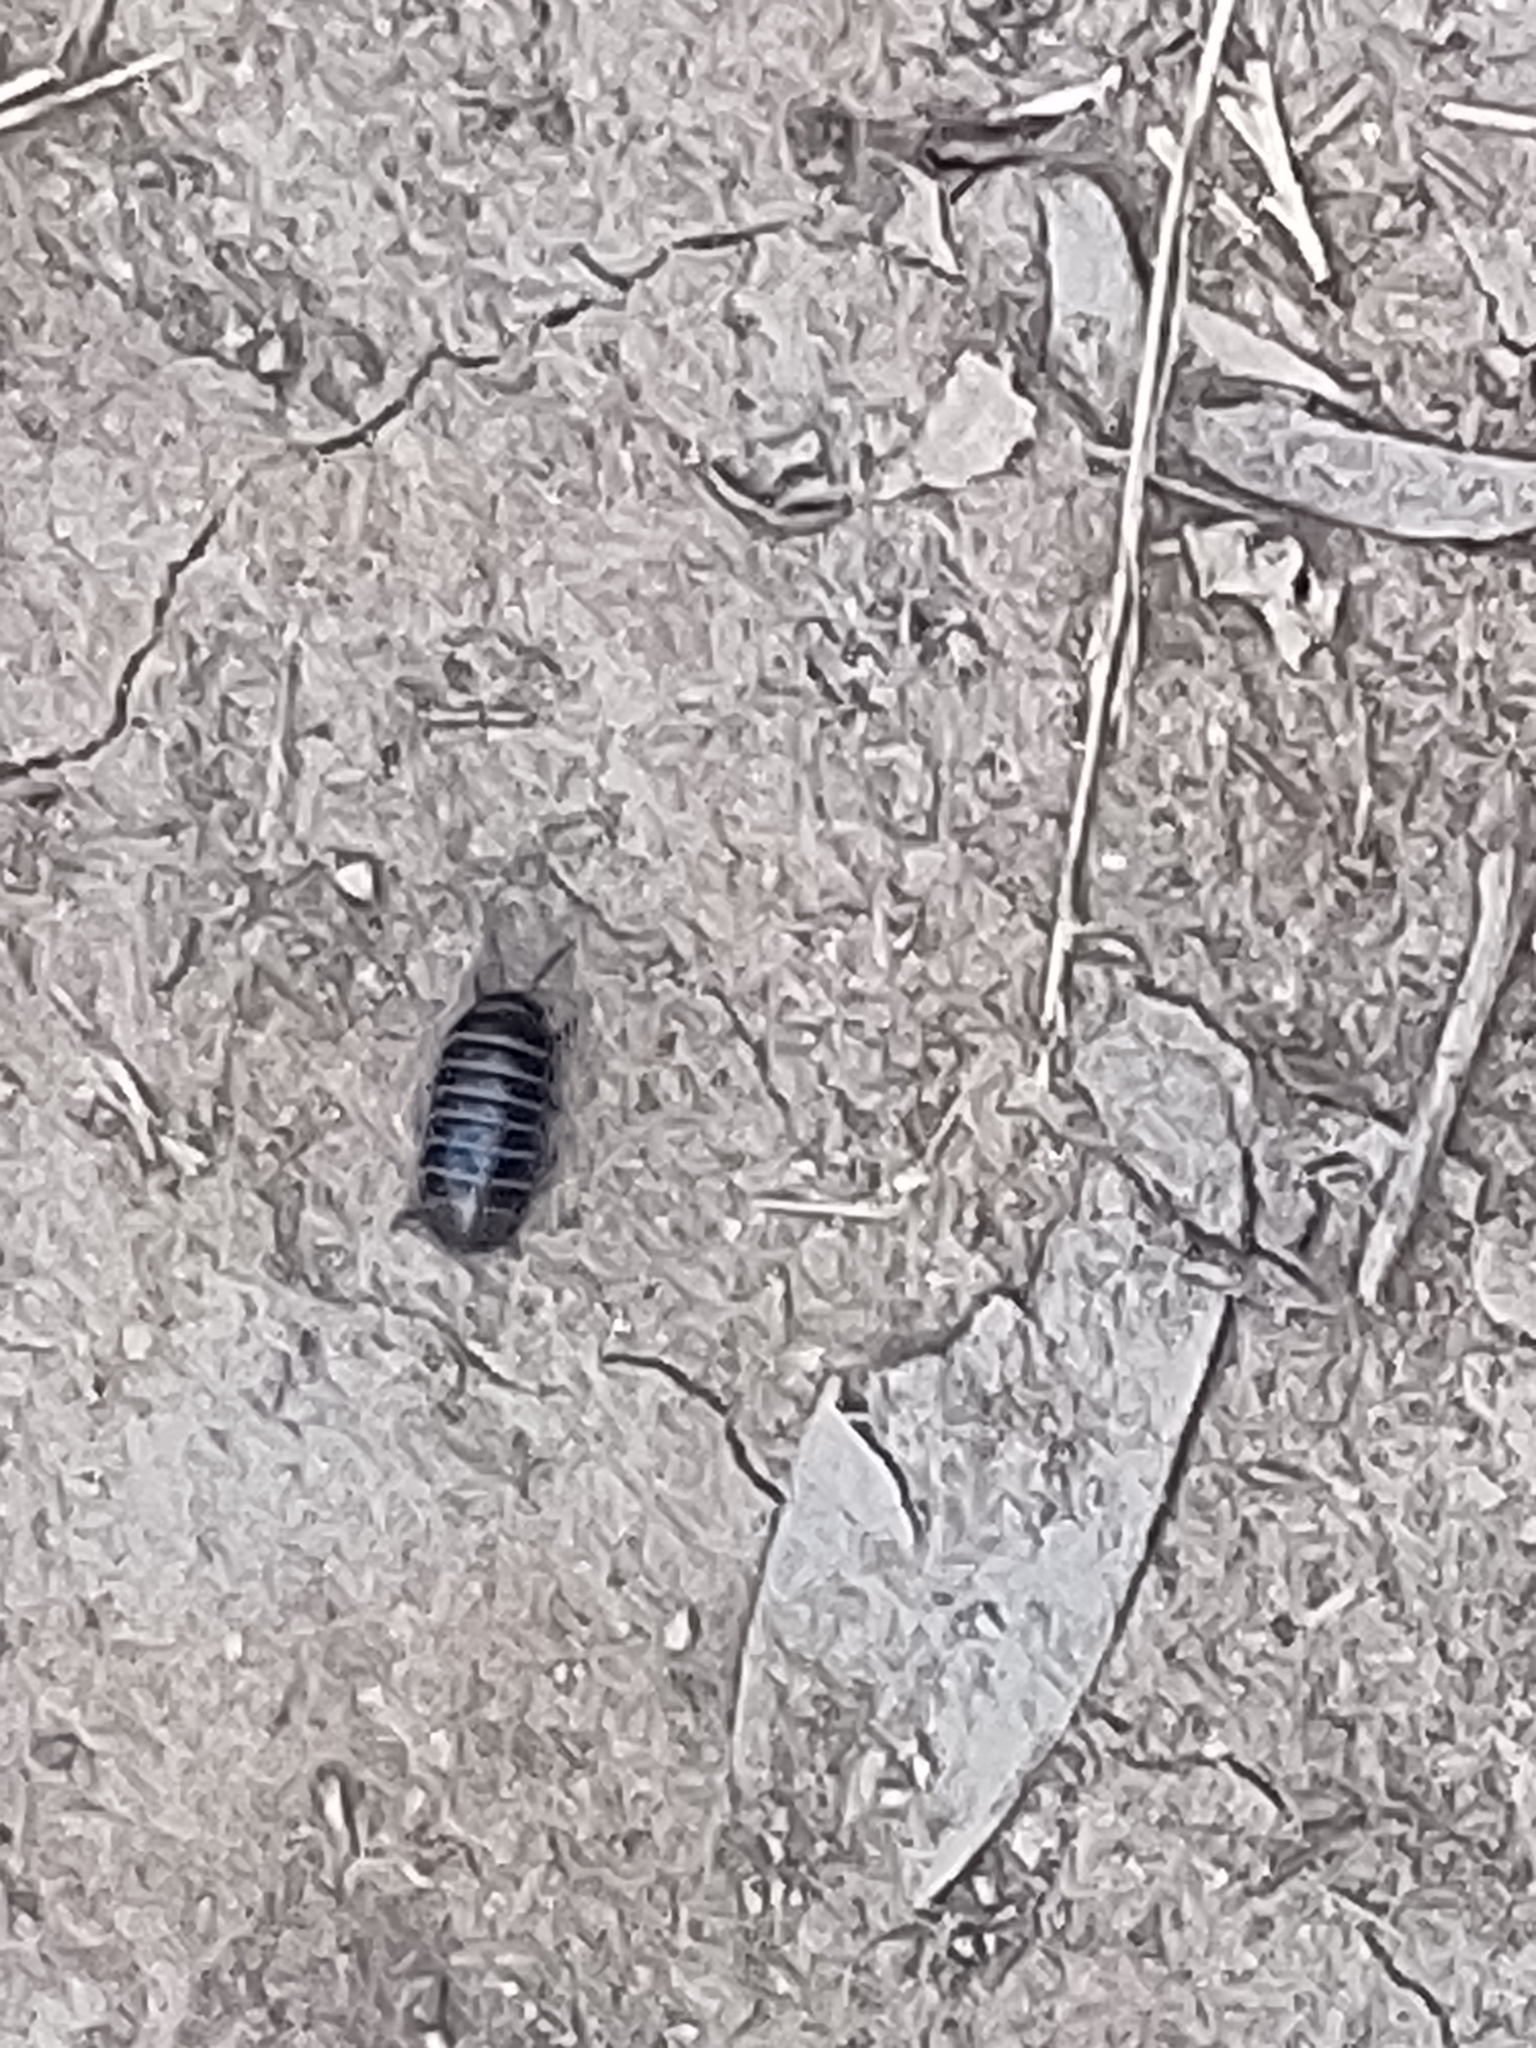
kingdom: Animalia
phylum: Arthropoda
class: Malacostraca
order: Isopoda
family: Armadillidiidae
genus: Armadillidium
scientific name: Armadillidium vulgare
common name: Common pill woodlouse
